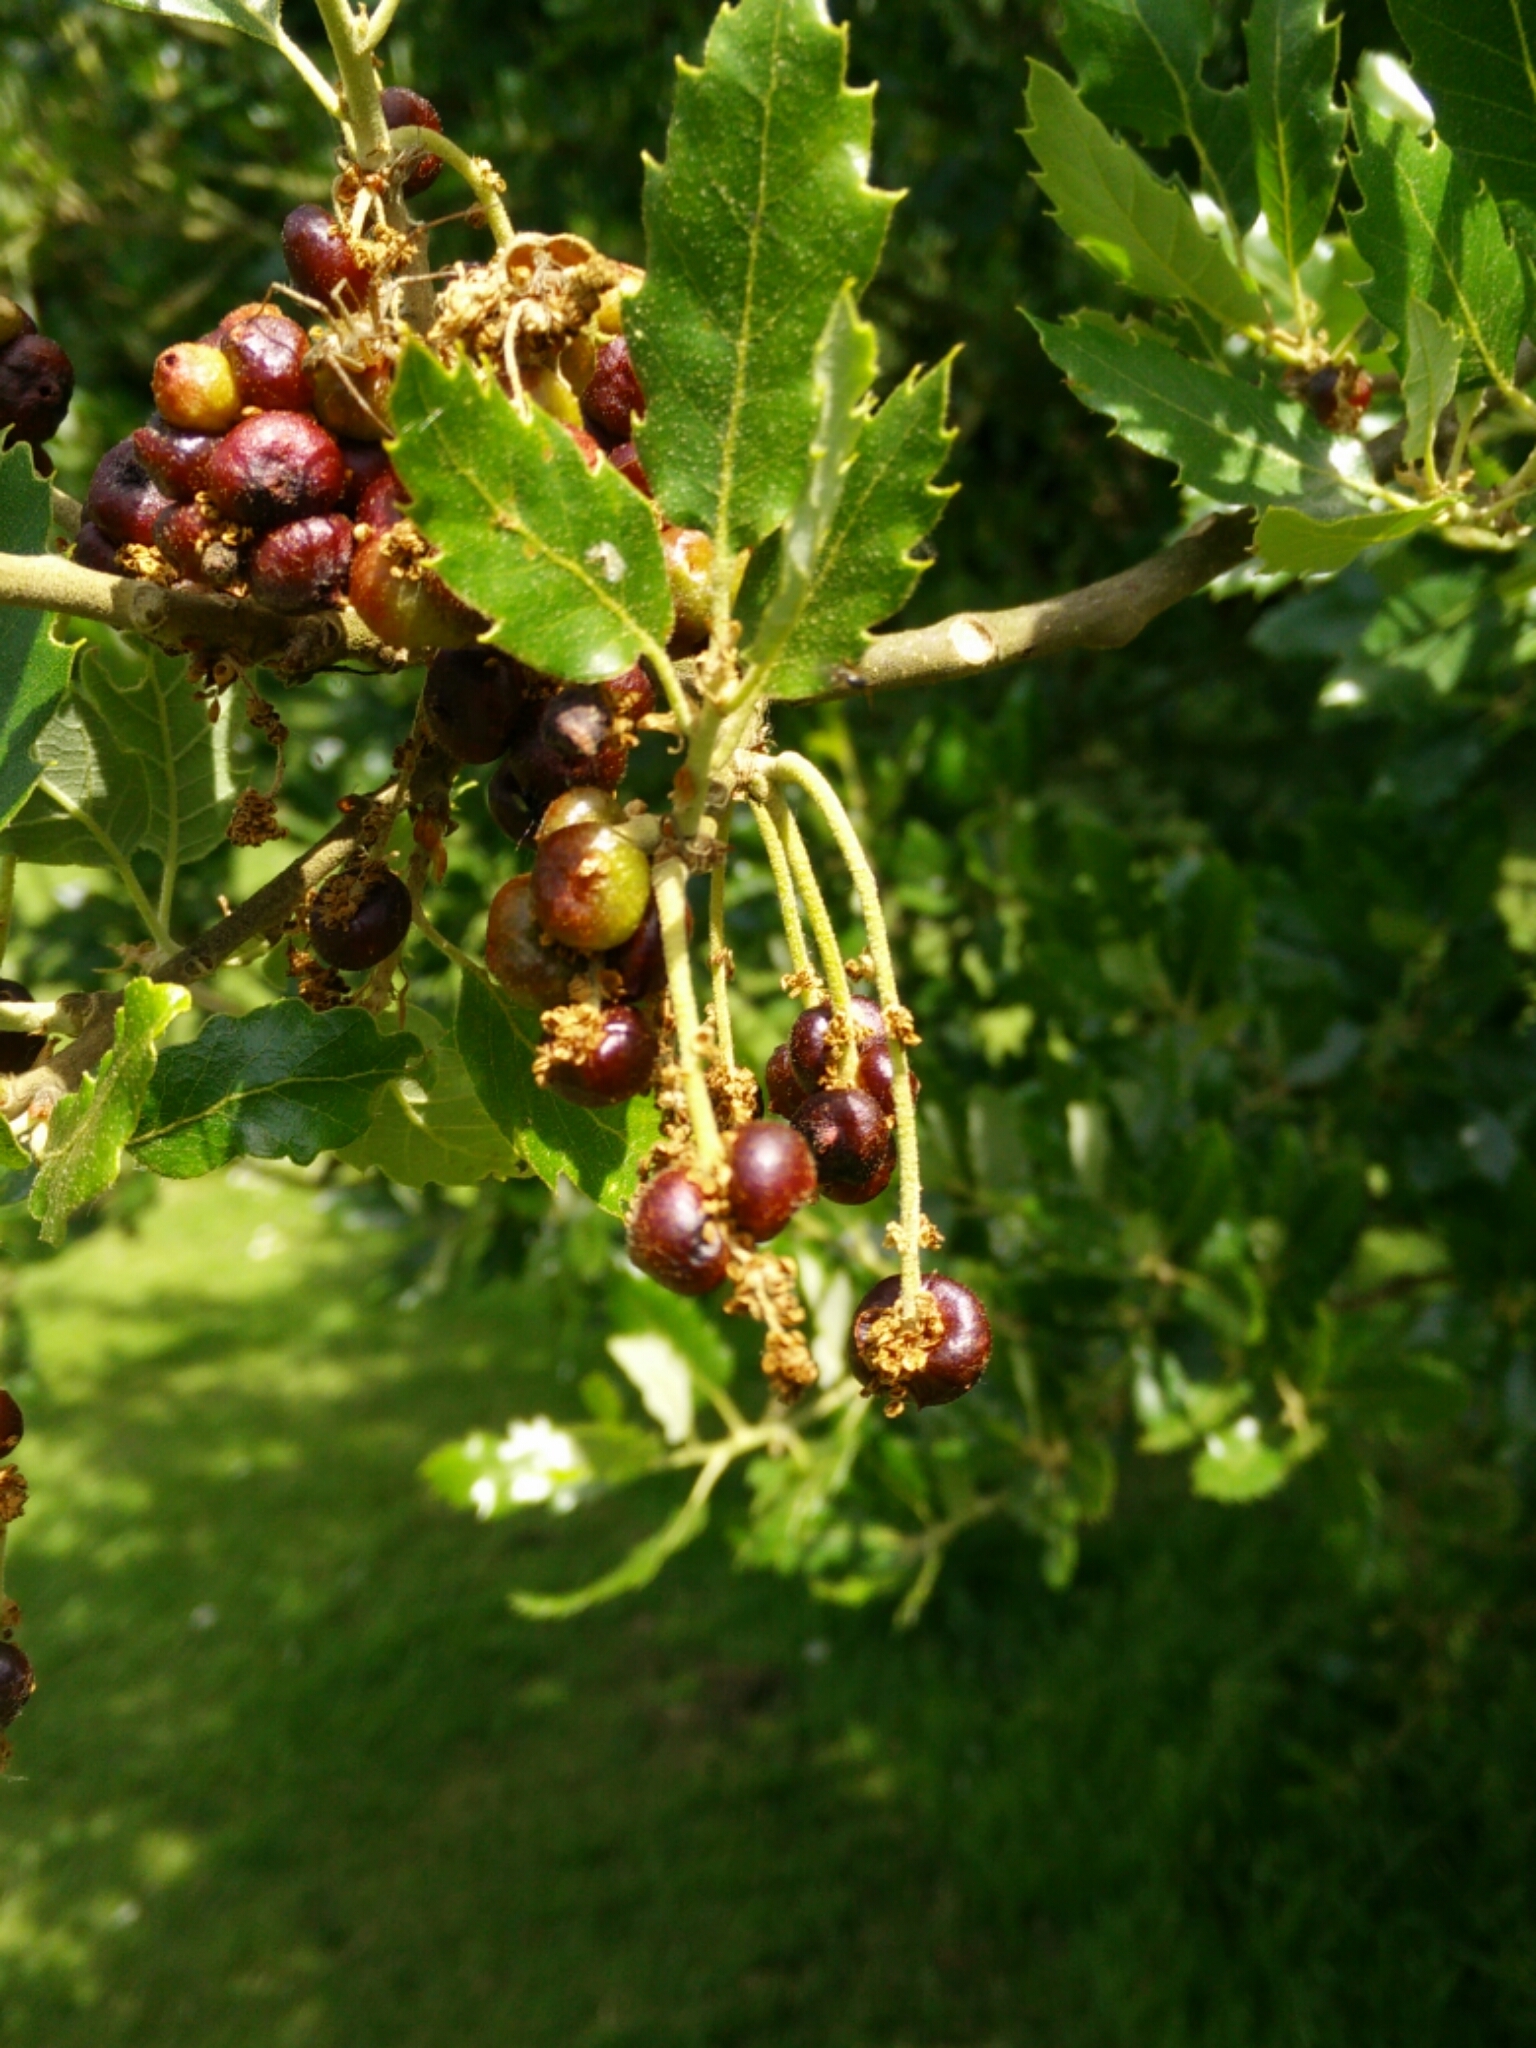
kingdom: Animalia
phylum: Arthropoda
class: Insecta
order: Hymenoptera
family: Cynipidae
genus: Andricus
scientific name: Andricus grossulariae
